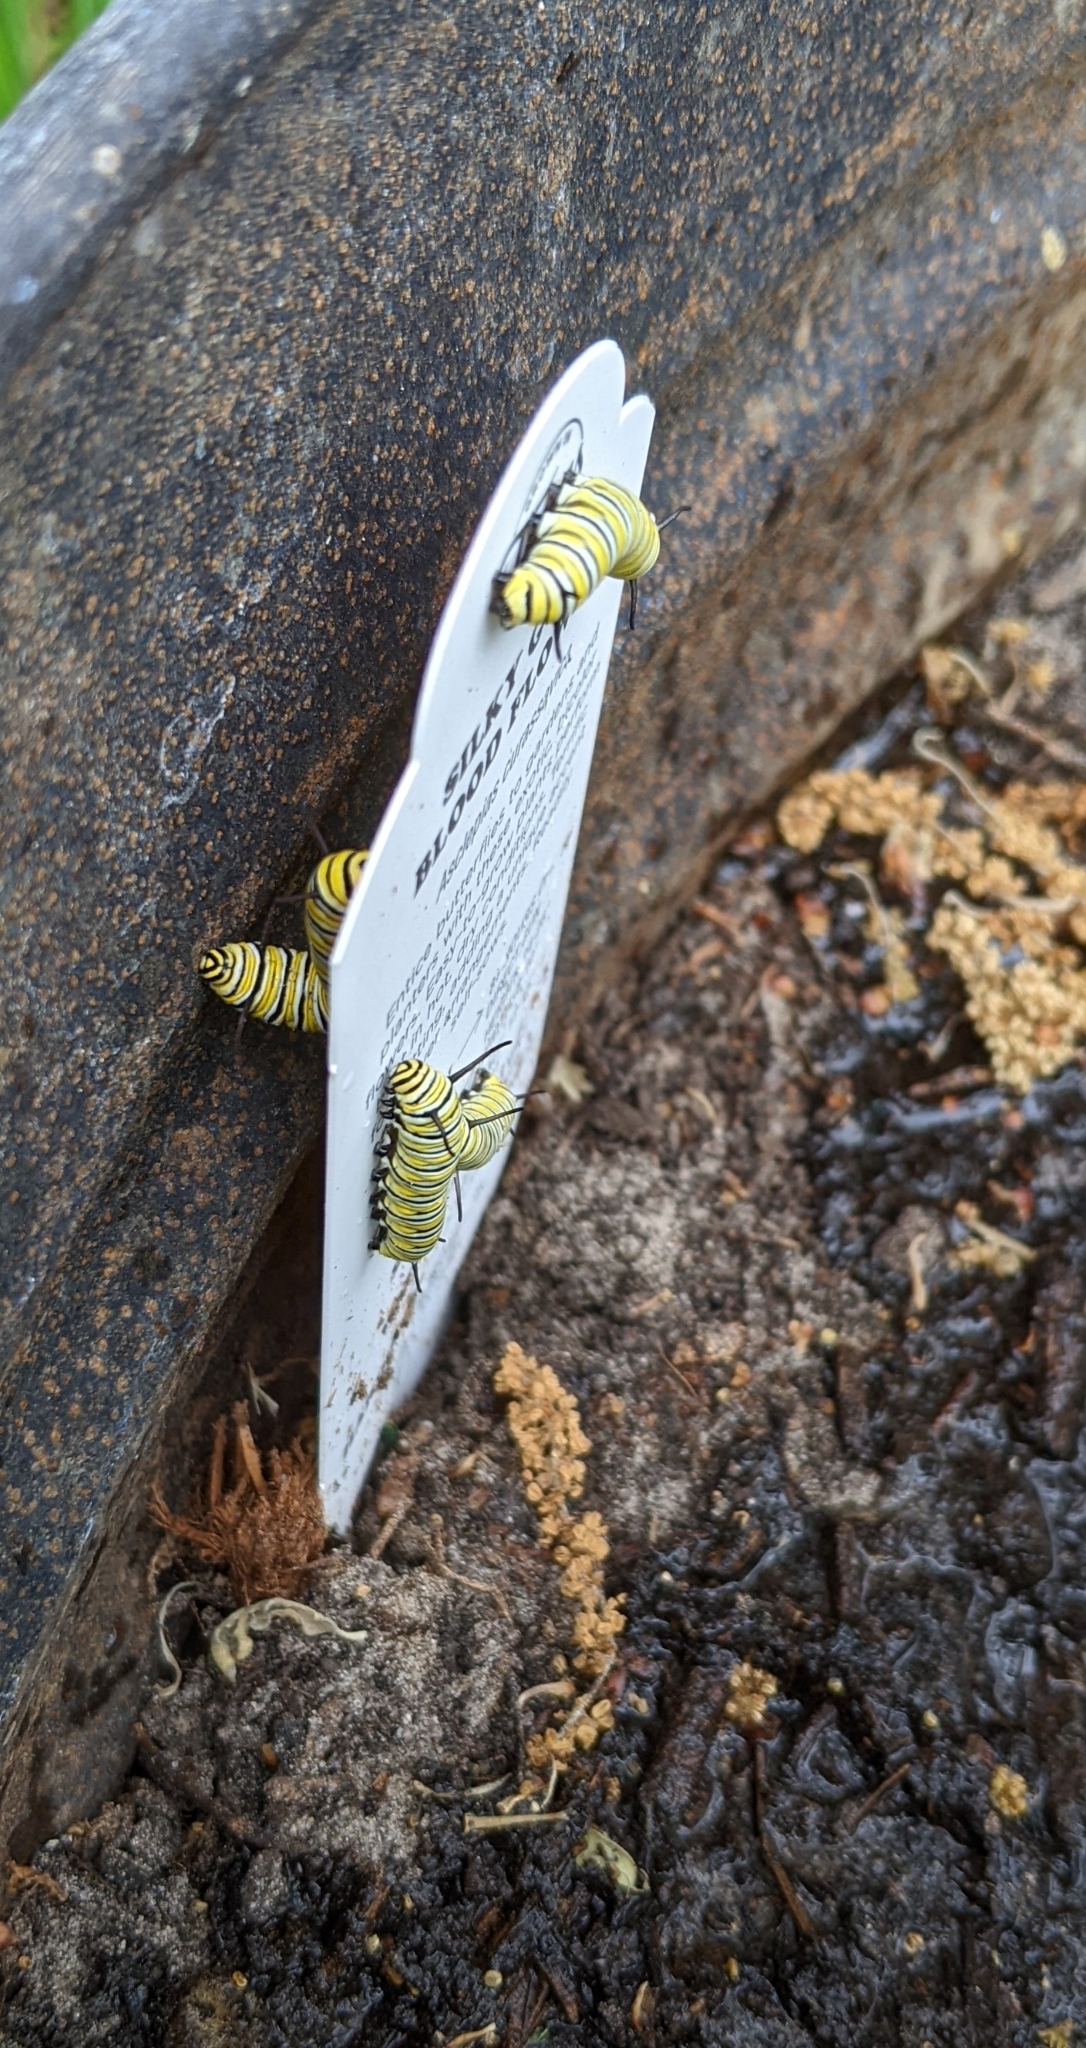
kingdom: Animalia
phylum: Arthropoda
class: Insecta
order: Lepidoptera
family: Nymphalidae
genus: Danaus
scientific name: Danaus plexippus
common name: Monarch
